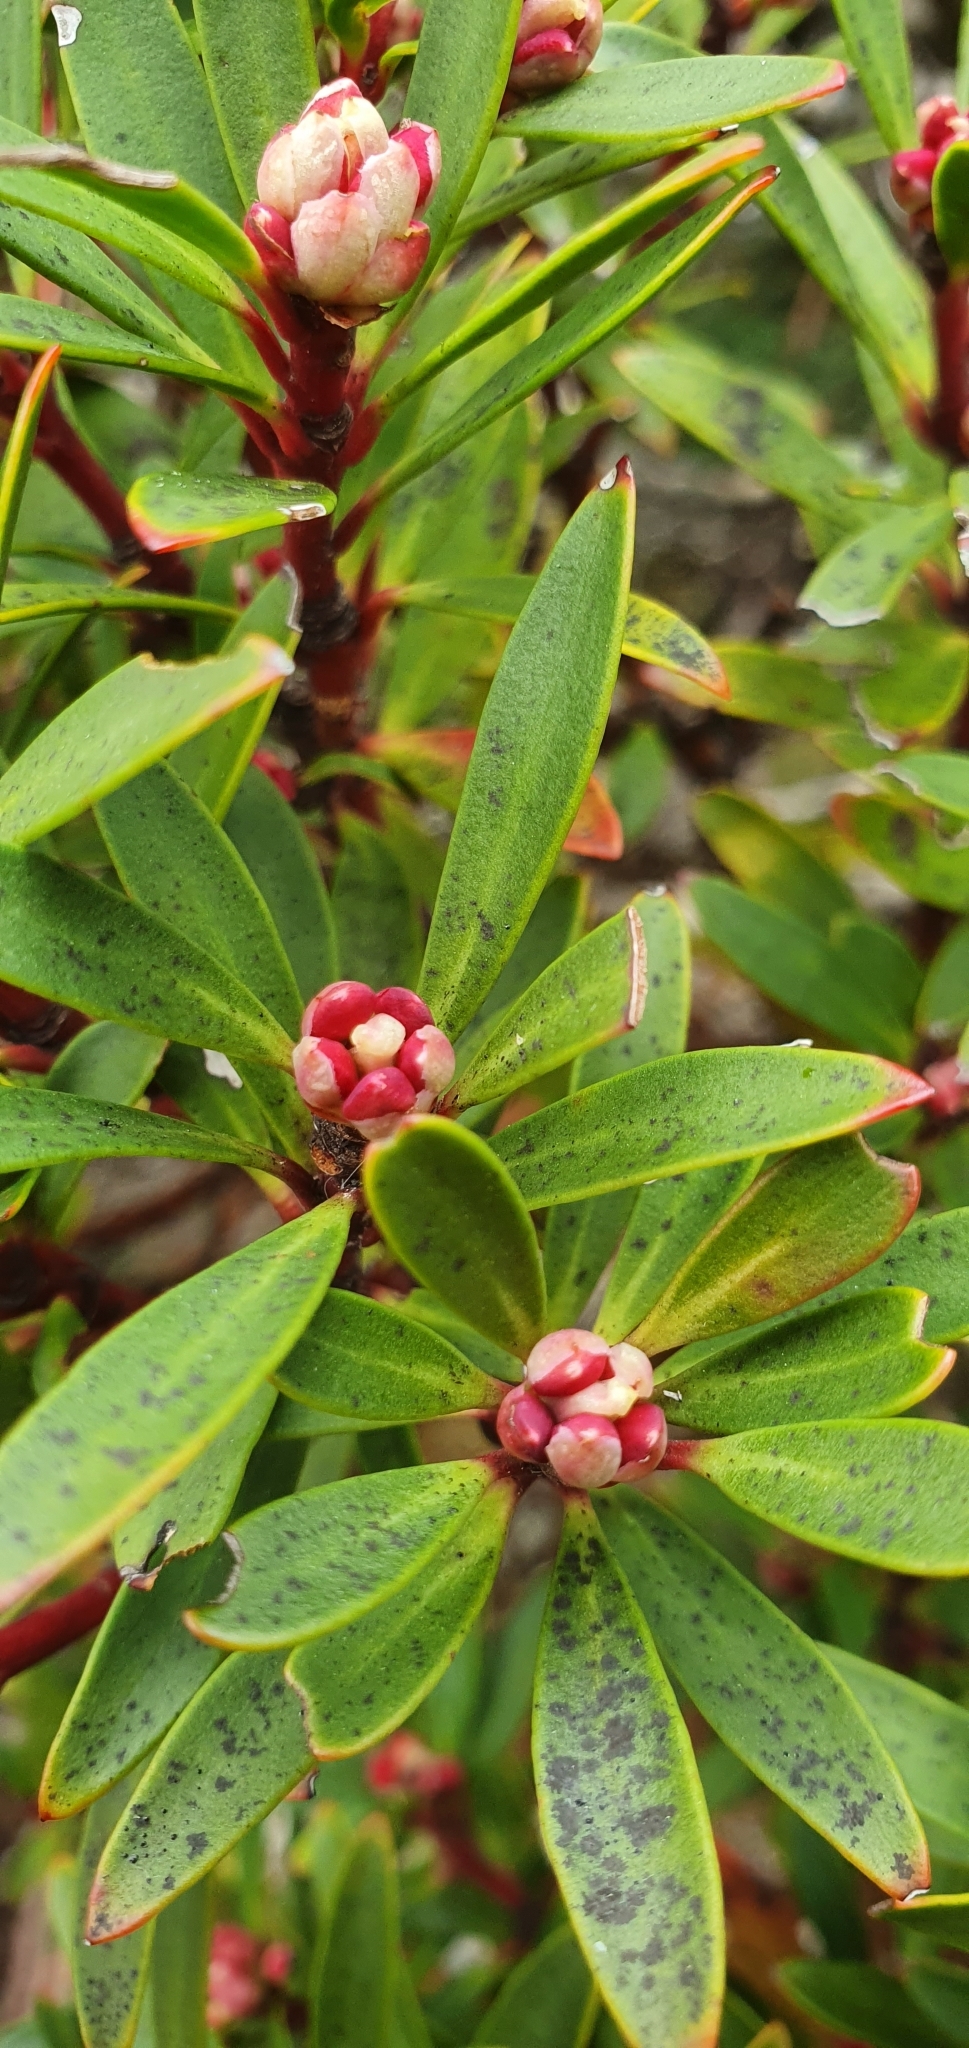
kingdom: Plantae
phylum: Tracheophyta
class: Magnoliopsida
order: Canellales
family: Winteraceae
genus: Drimys
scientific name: Drimys aromatica
